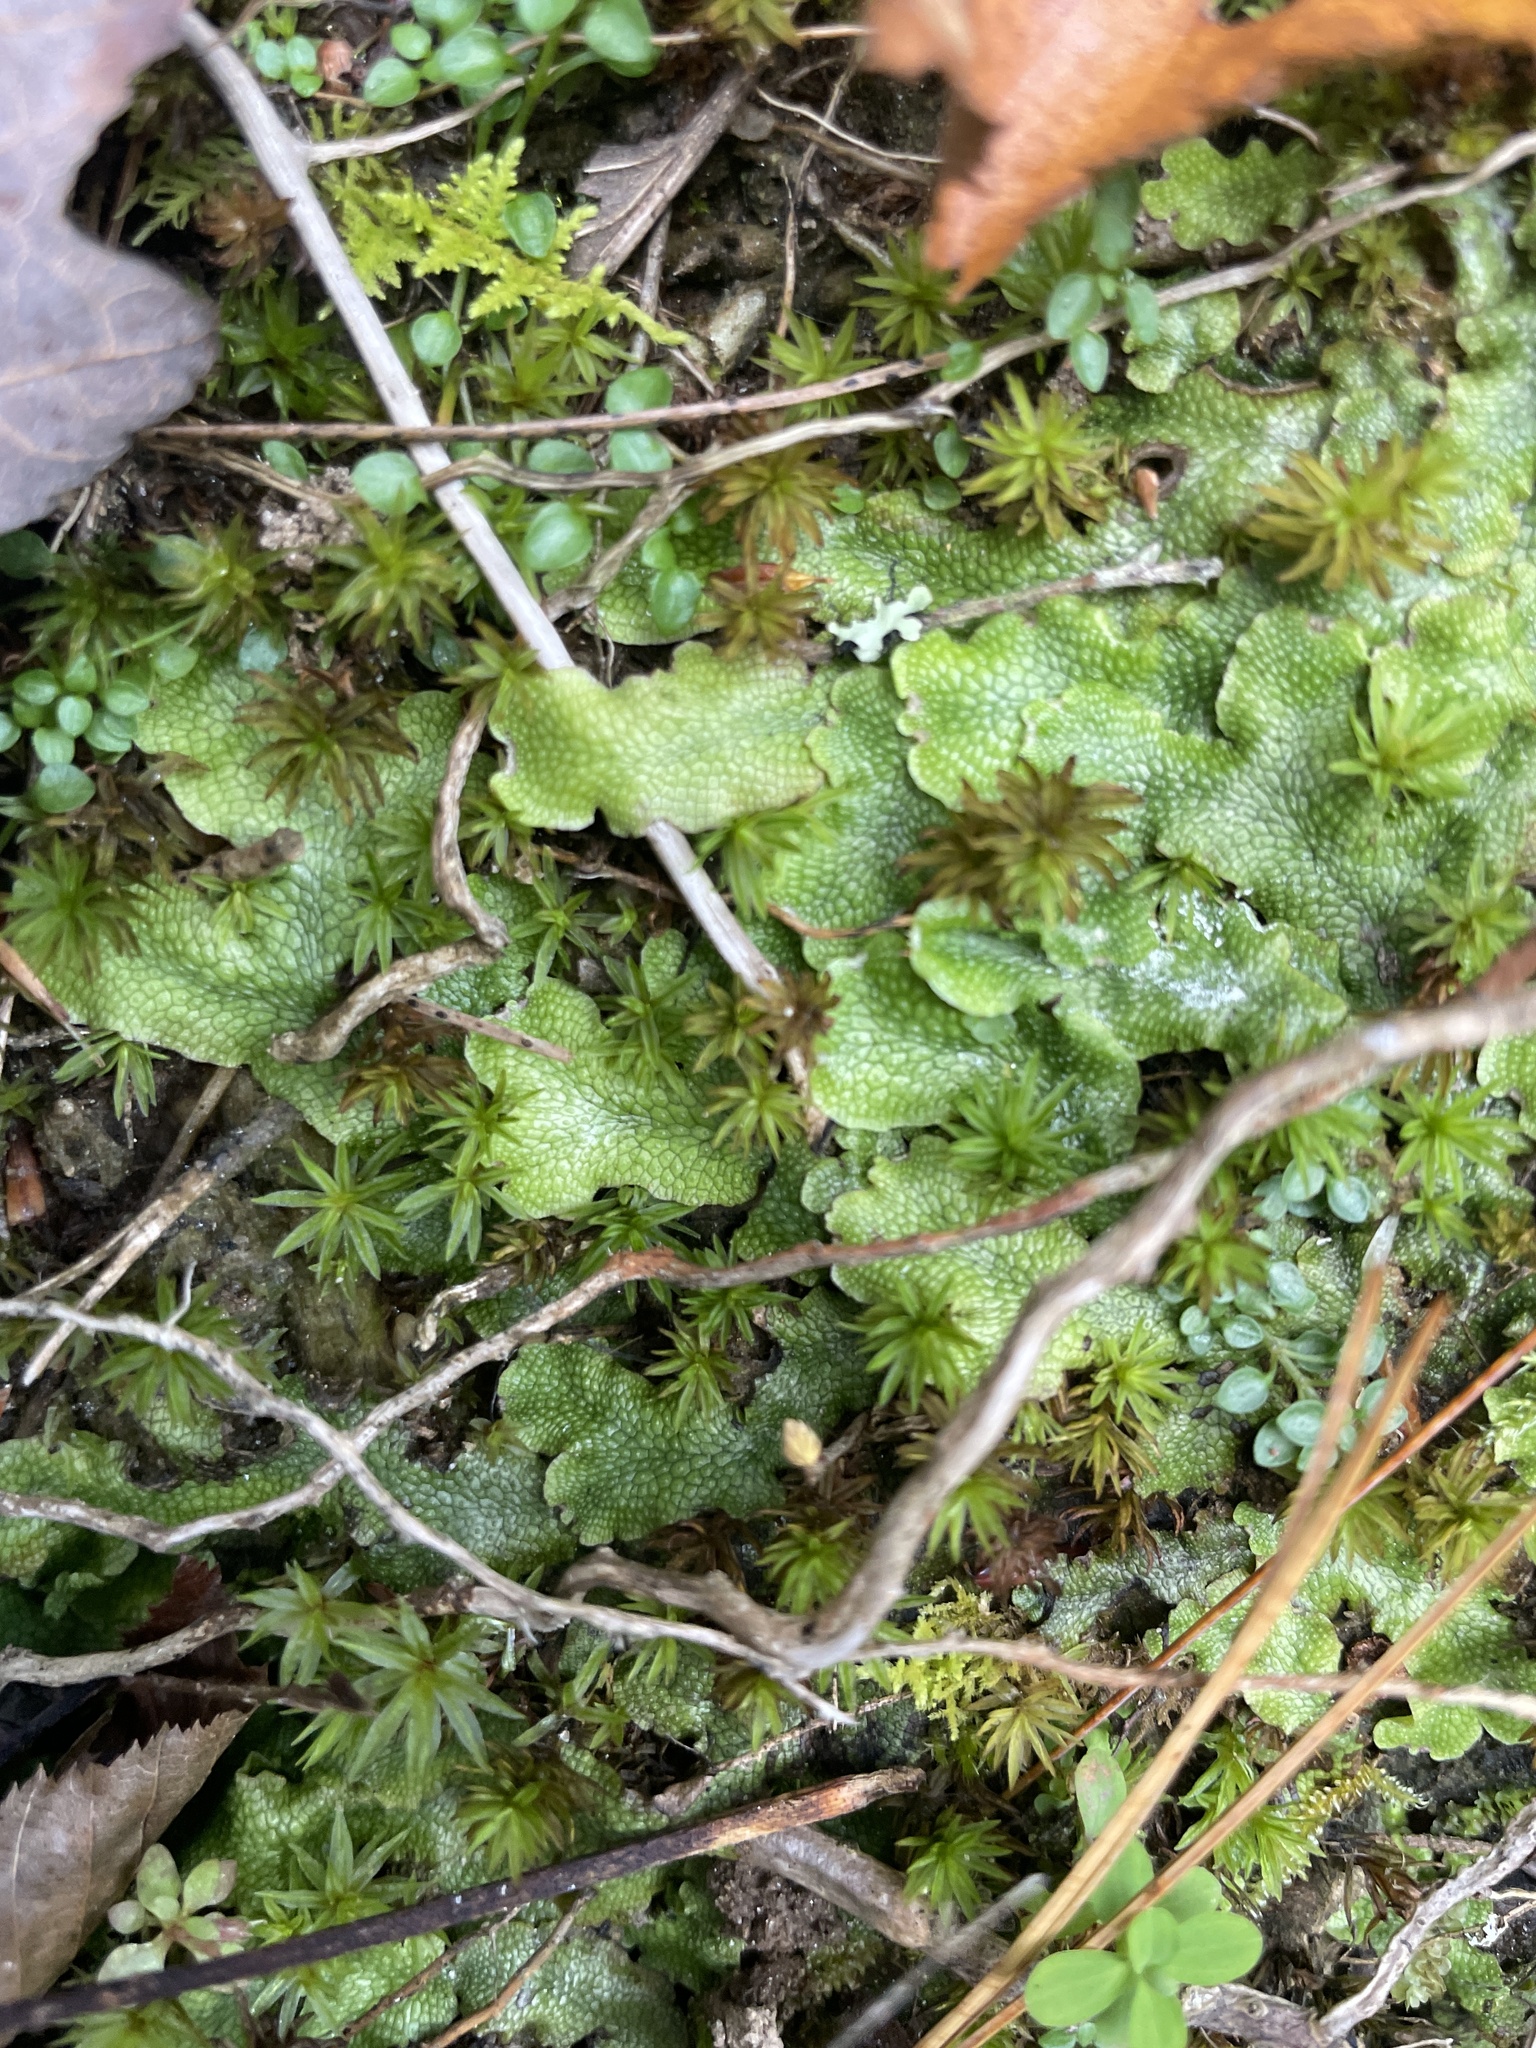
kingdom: Plantae
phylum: Marchantiophyta
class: Marchantiopsida
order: Marchantiales
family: Conocephalaceae
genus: Conocephalum
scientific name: Conocephalum salebrosum
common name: Cat-tongue liverwort
